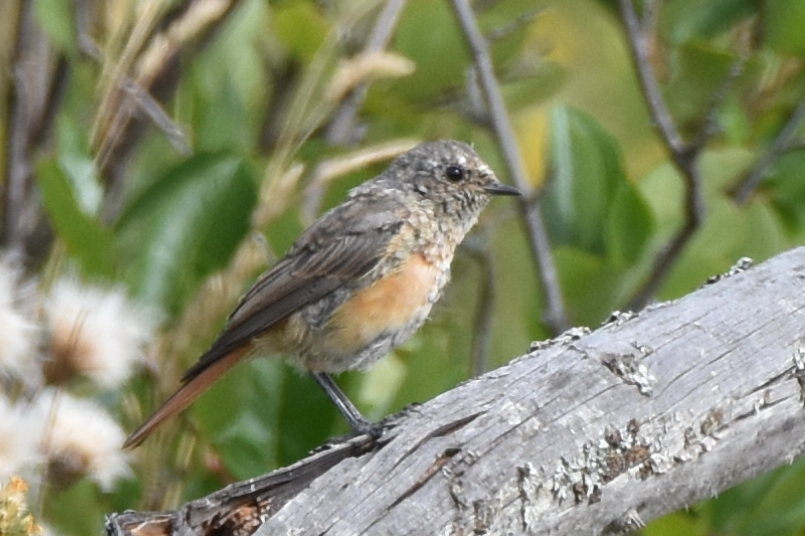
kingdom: Animalia
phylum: Chordata
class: Aves
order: Passeriformes
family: Muscicapidae
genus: Phoenicurus
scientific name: Phoenicurus phoenicurus
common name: Common redstart
